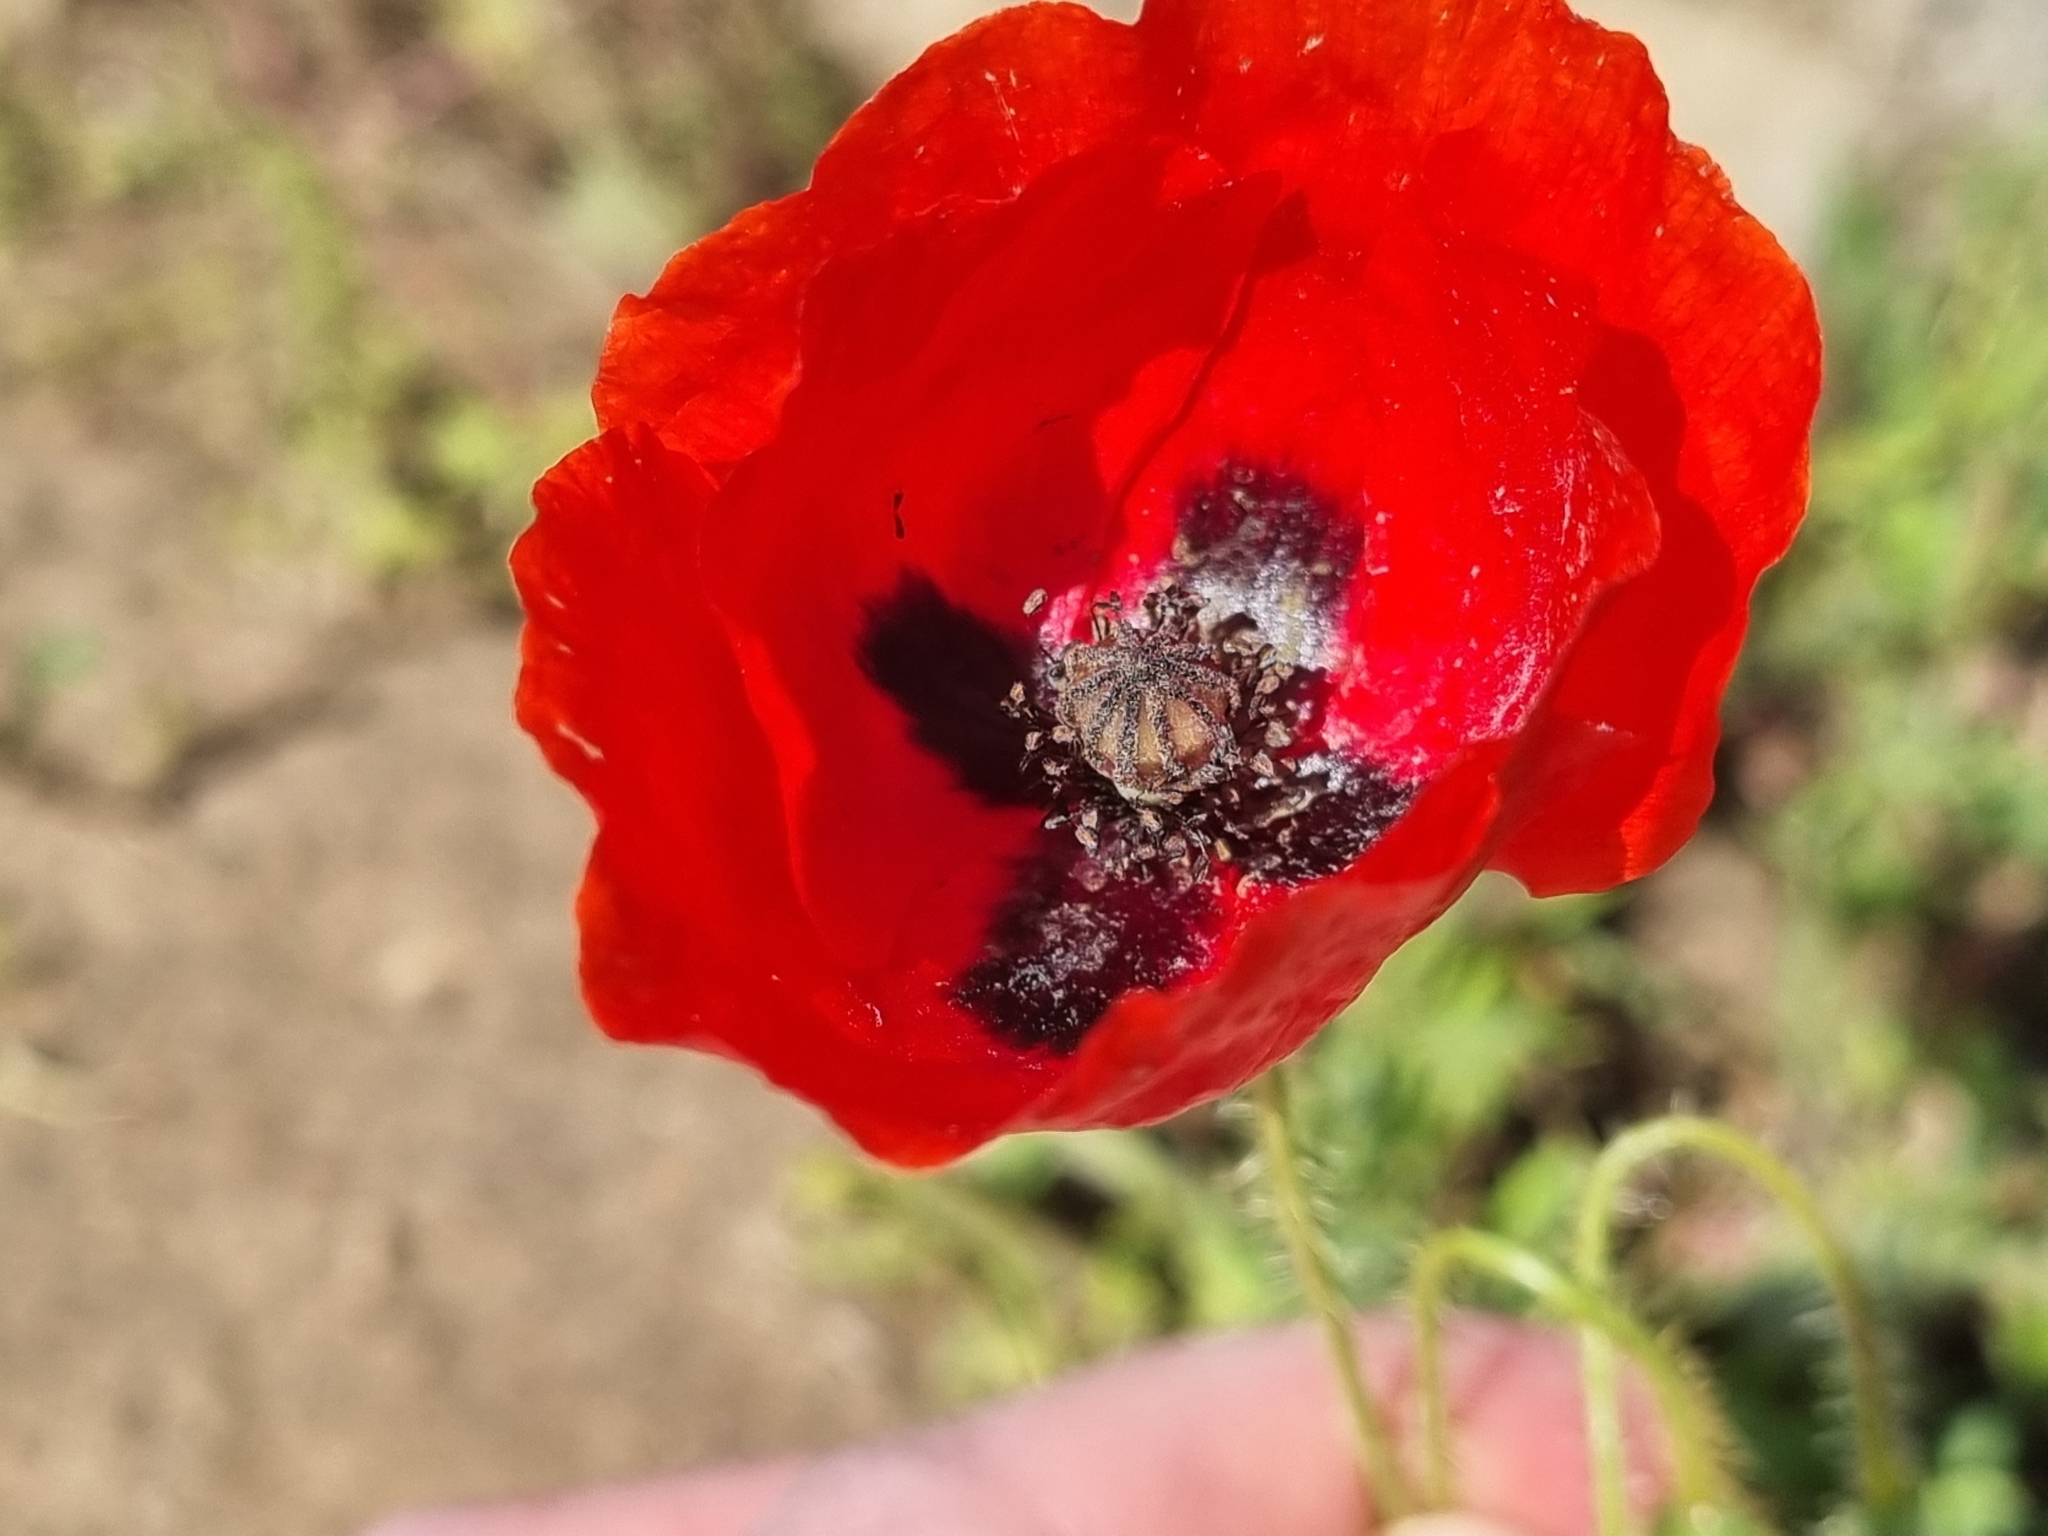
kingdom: Plantae
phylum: Tracheophyta
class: Magnoliopsida
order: Ranunculales
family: Papaveraceae
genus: Papaver
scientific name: Papaver rhoeas
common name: Corn poppy
